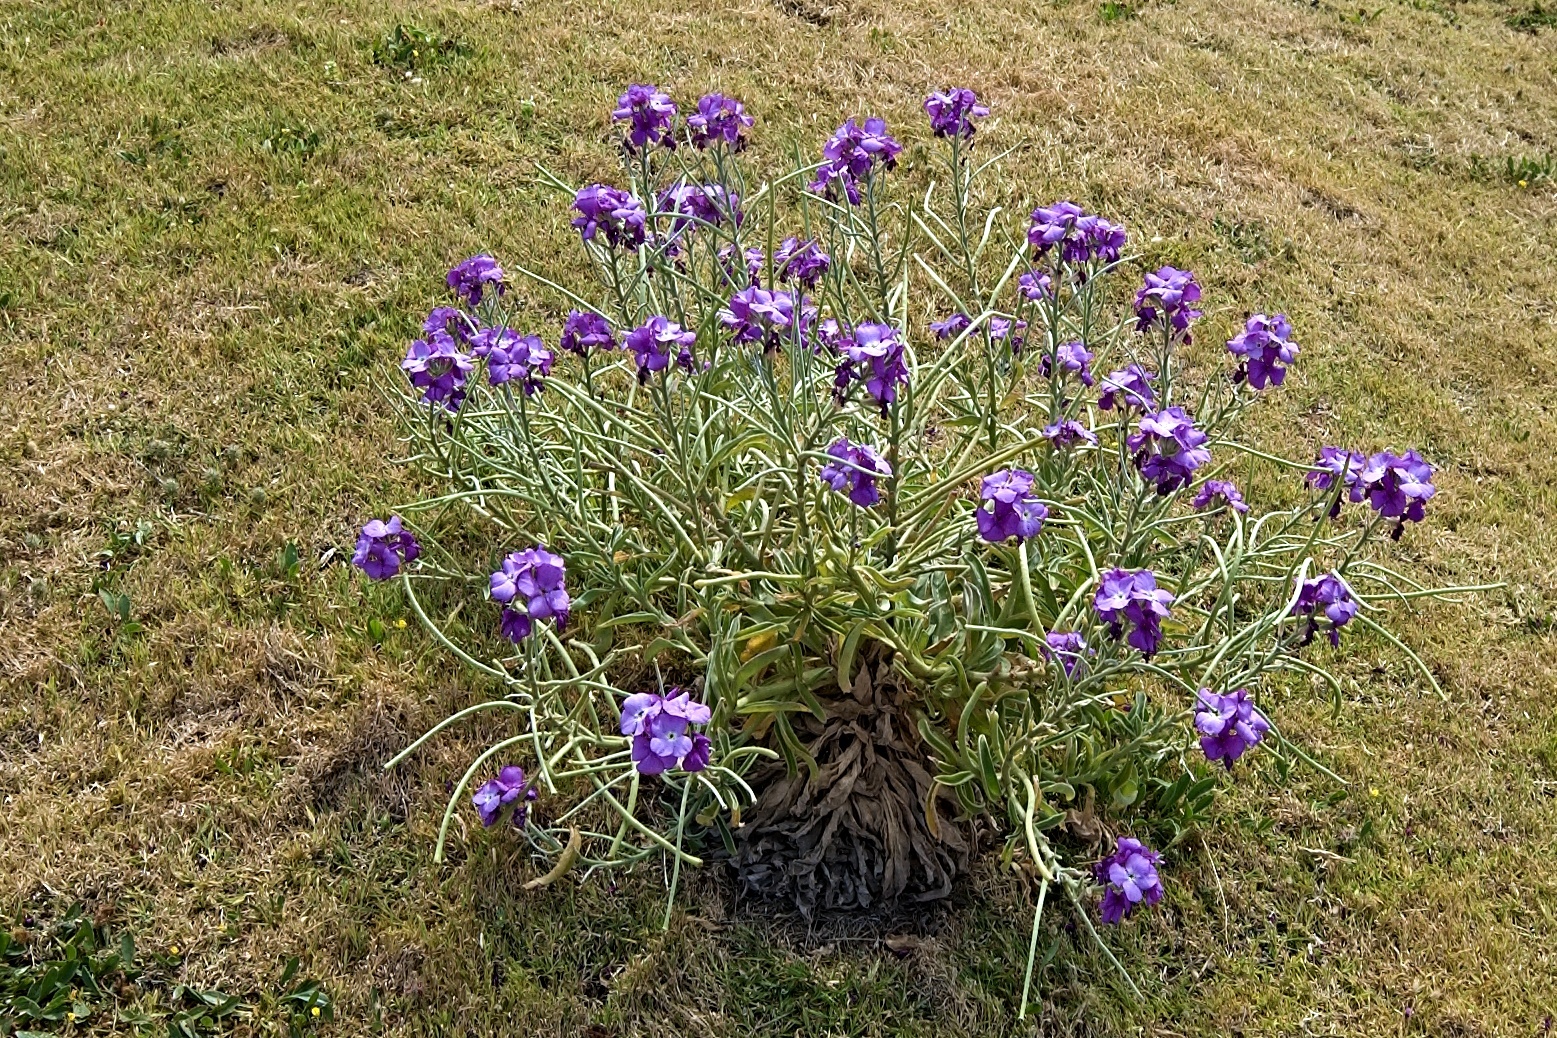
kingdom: Plantae
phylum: Tracheophyta
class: Magnoliopsida
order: Brassicales
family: Brassicaceae
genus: Matthiola
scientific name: Matthiola maderensis
